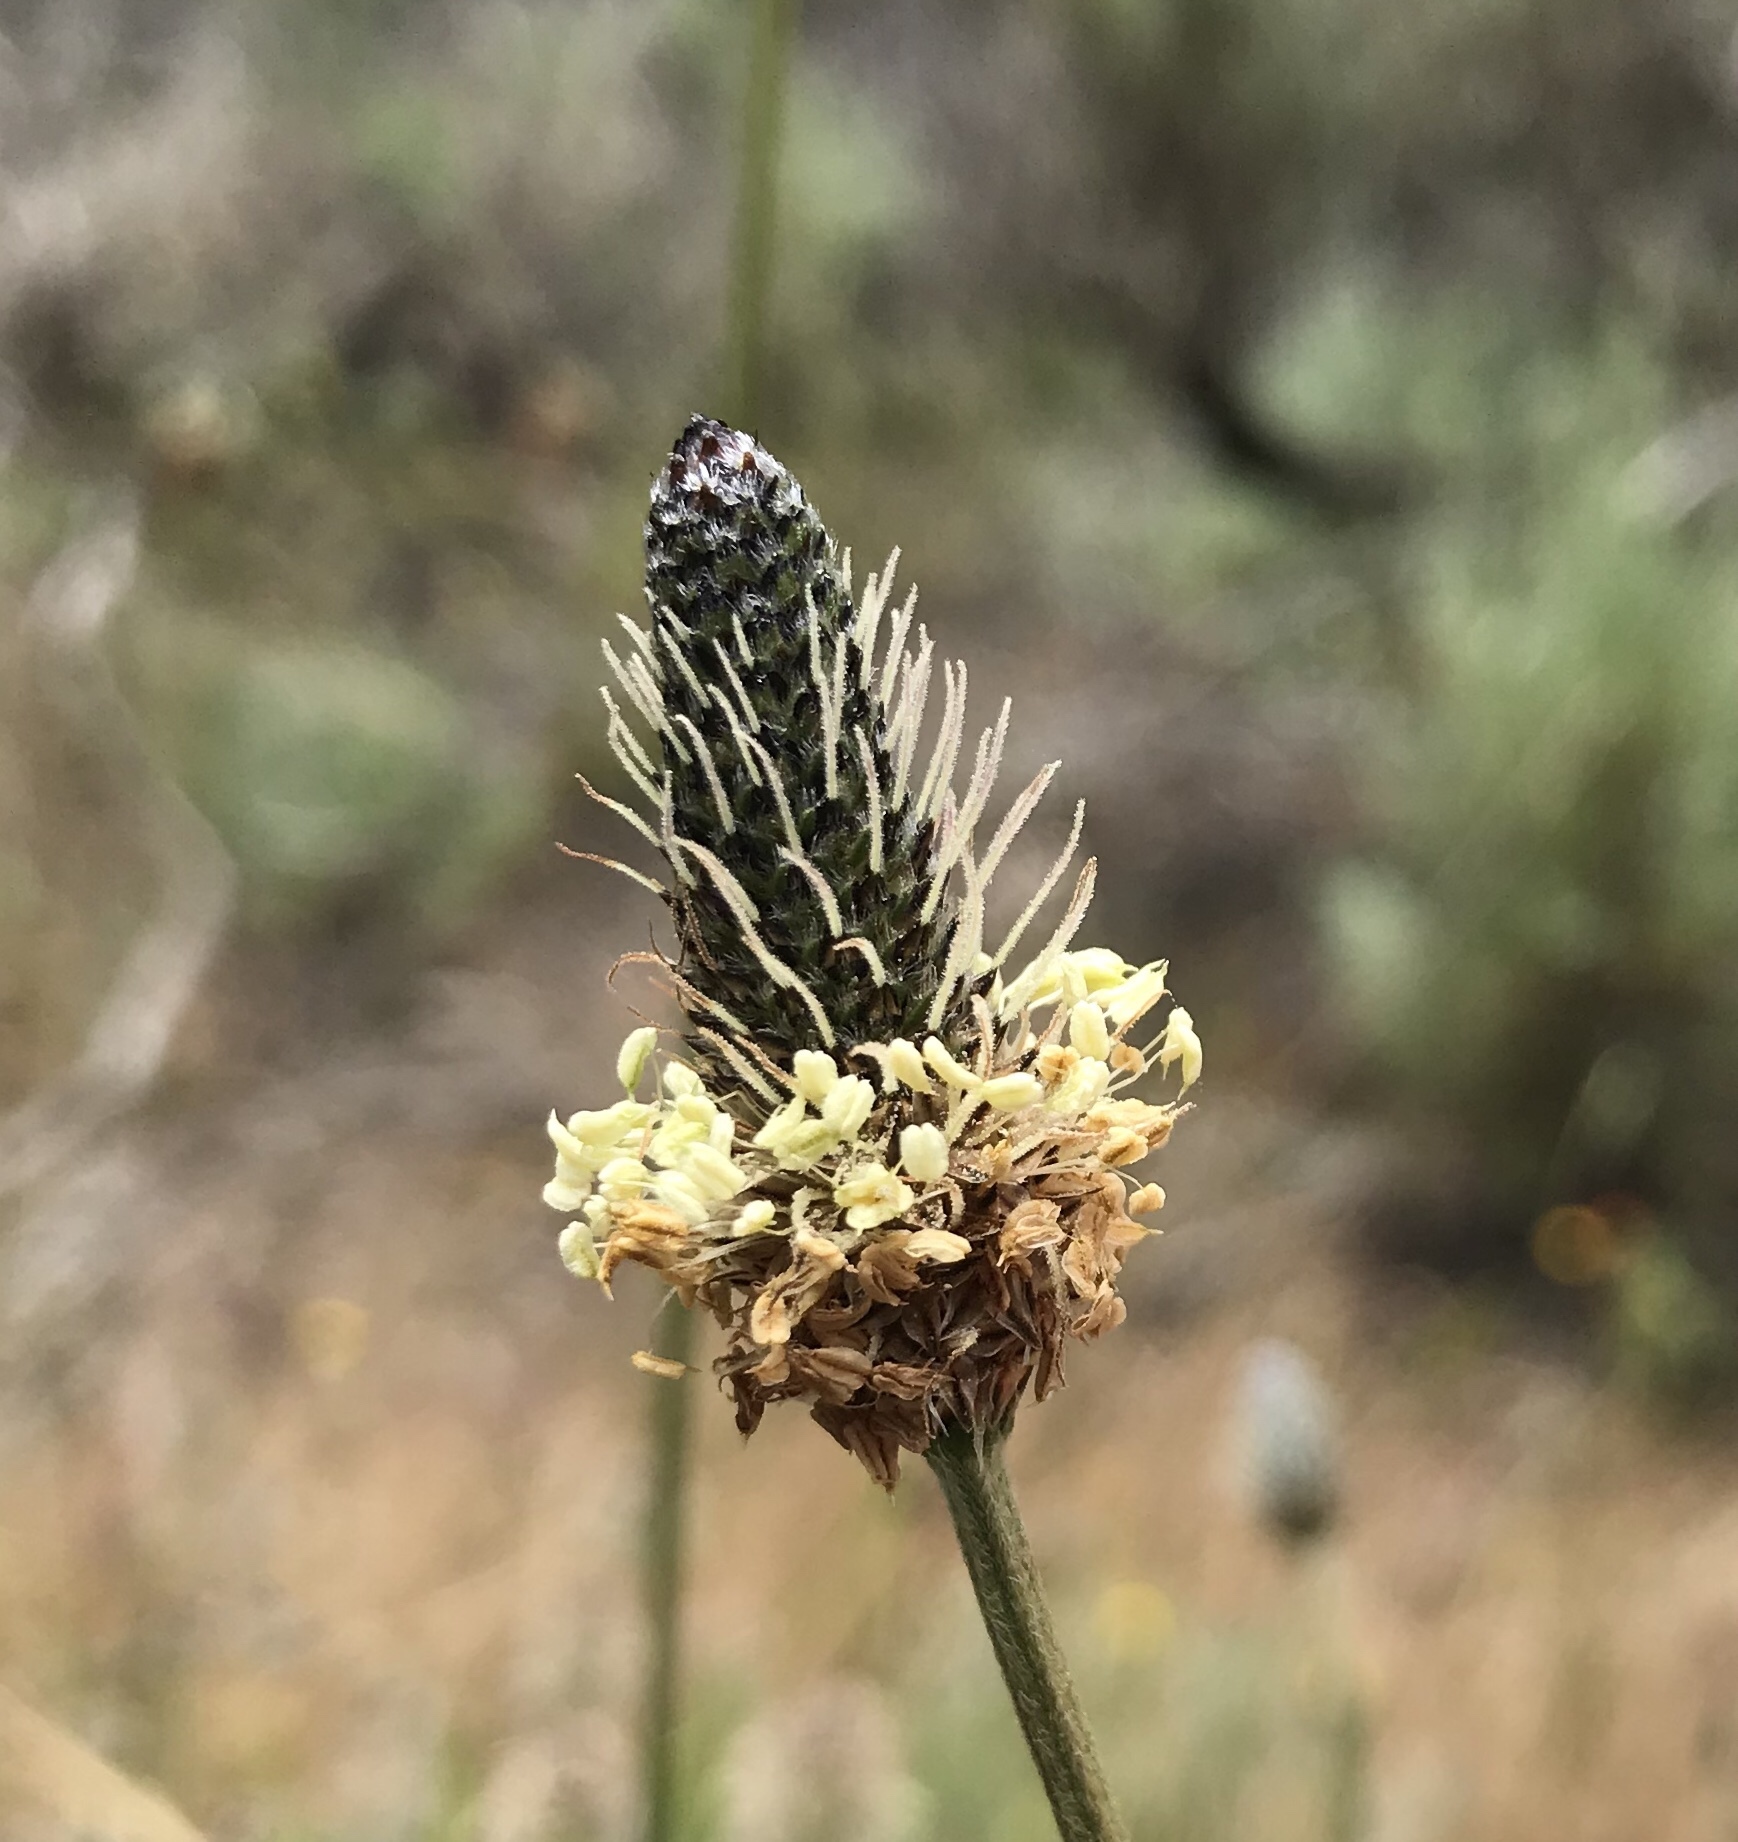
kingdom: Plantae
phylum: Tracheophyta
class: Magnoliopsida
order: Lamiales
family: Plantaginaceae
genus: Plantago
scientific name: Plantago lanceolata
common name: Ribwort plantain
